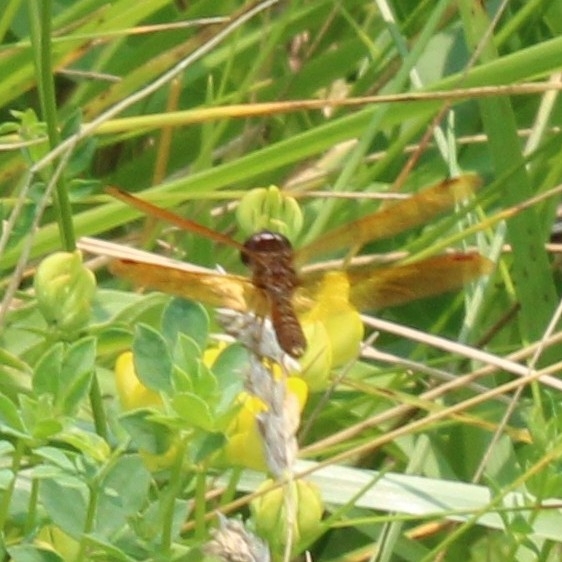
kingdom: Animalia
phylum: Arthropoda
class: Insecta
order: Odonata
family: Libellulidae
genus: Perithemis
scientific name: Perithemis tenera
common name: Eastern amberwing
